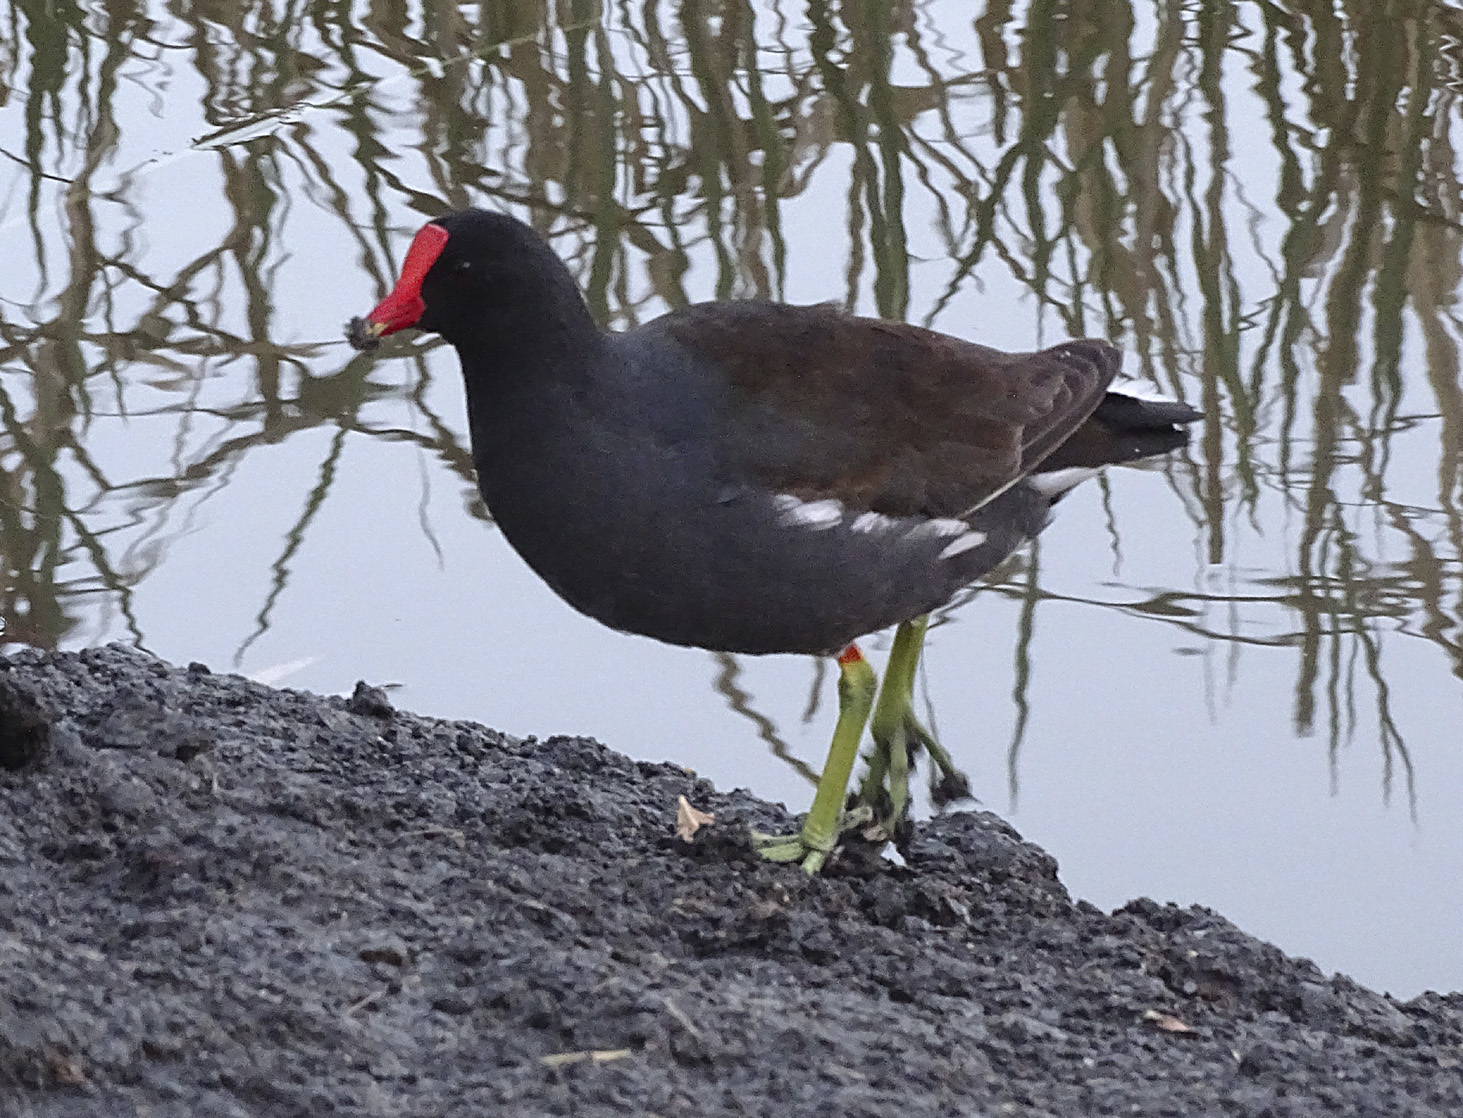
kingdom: Animalia
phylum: Chordata
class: Aves
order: Gruiformes
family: Rallidae
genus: Gallinula
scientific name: Gallinula chloropus
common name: Common moorhen
